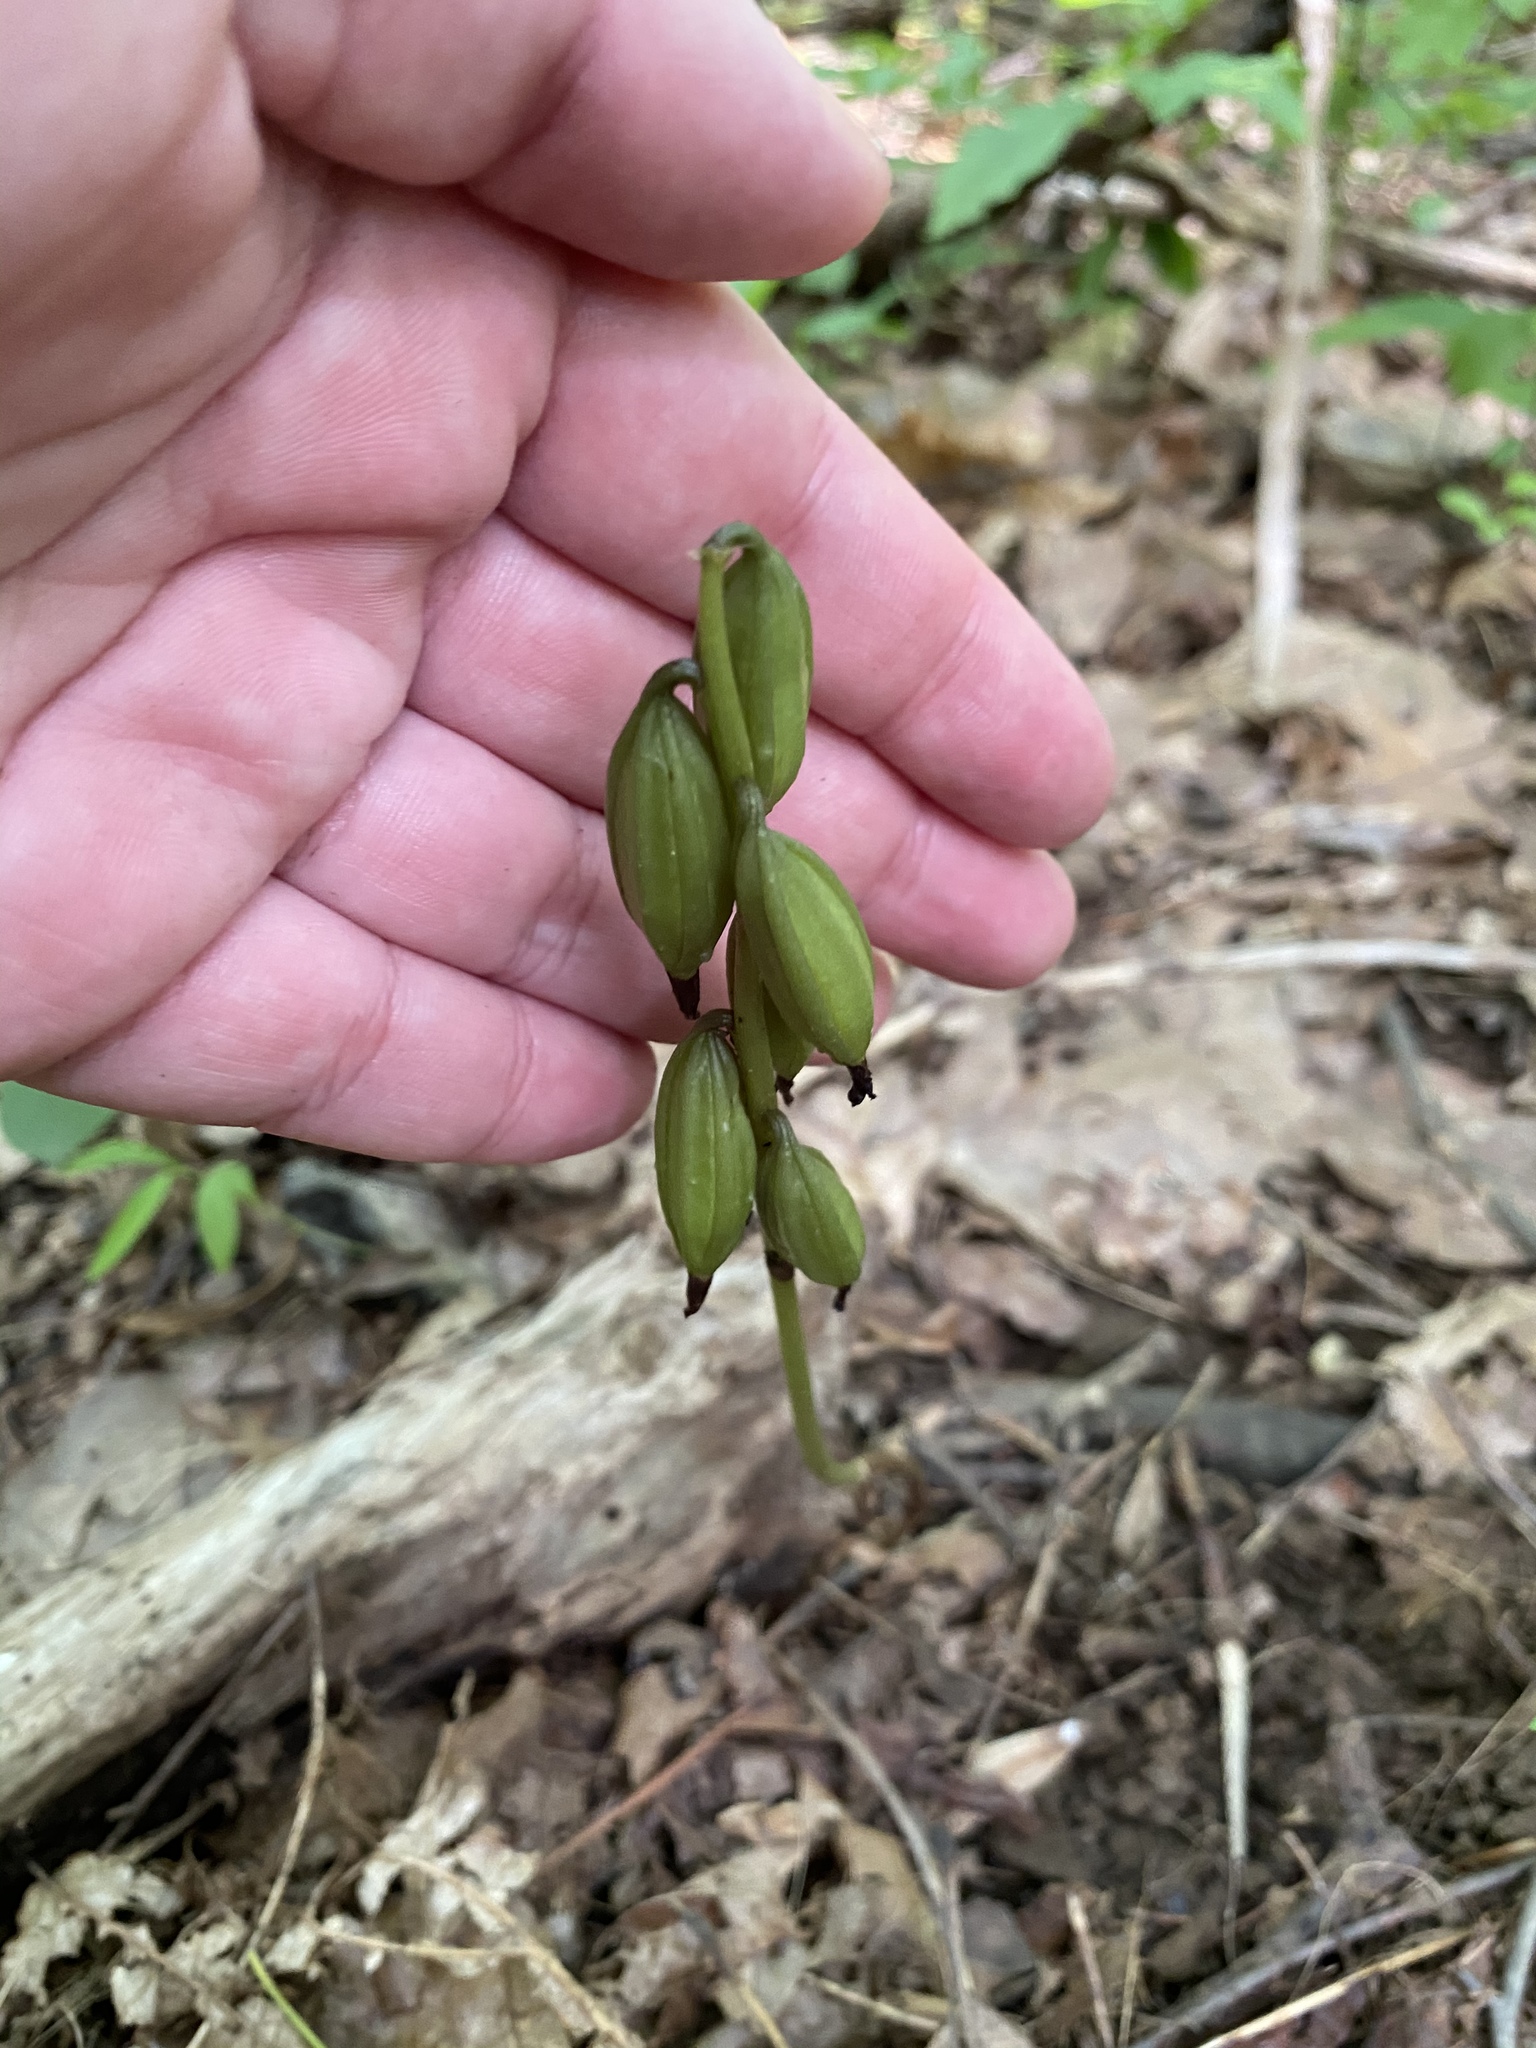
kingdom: Plantae
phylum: Tracheophyta
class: Liliopsida
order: Asparagales
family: Orchidaceae
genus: Aplectrum
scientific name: Aplectrum hyemale
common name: Adam-and-eve
